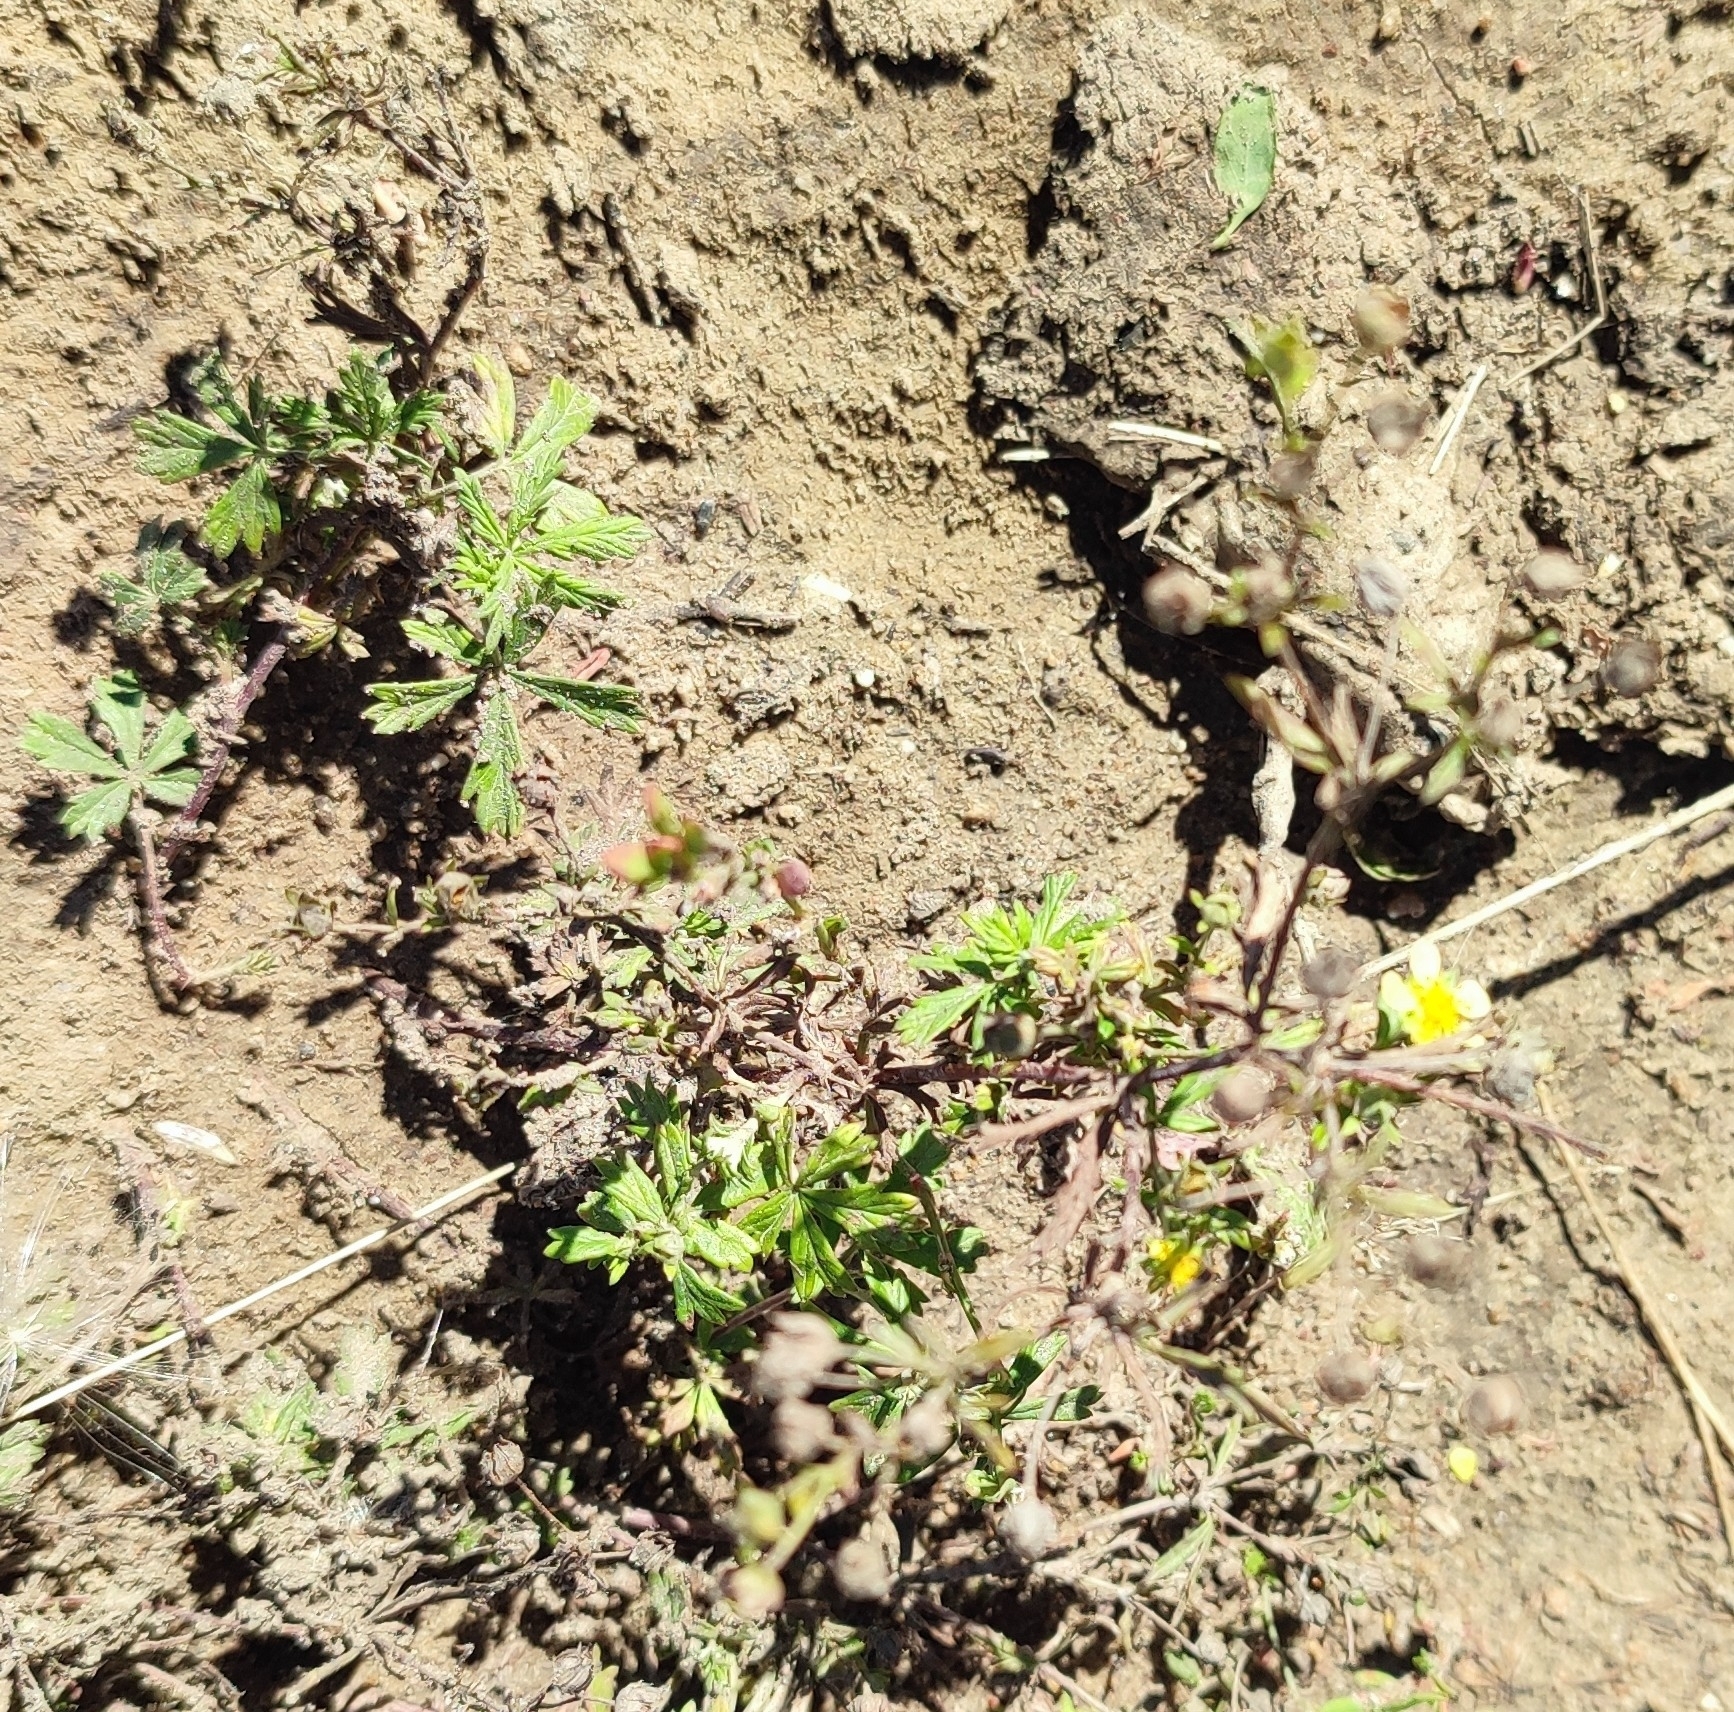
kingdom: Plantae
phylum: Tracheophyta
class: Magnoliopsida
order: Rosales
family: Rosaceae
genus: Potentilla
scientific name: Potentilla argentea
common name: Hoary cinquefoil
